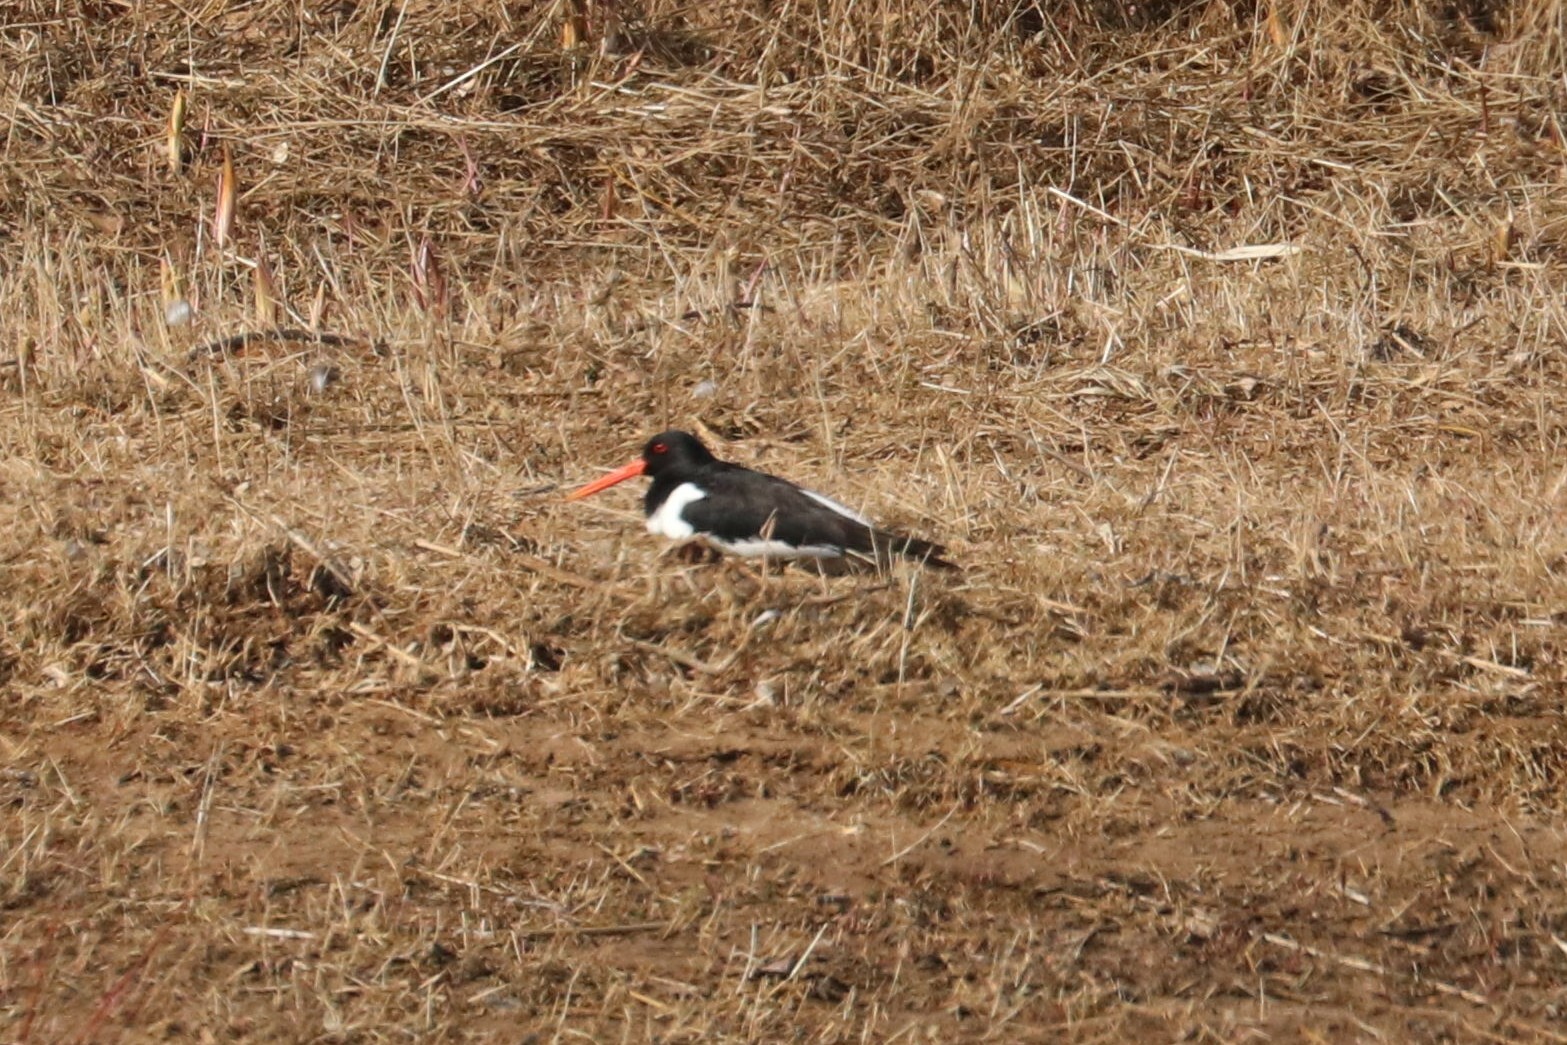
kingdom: Animalia
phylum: Chordata
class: Aves
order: Charadriiformes
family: Haematopodidae
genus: Haematopus
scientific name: Haematopus ostralegus
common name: Eurasian oystercatcher
